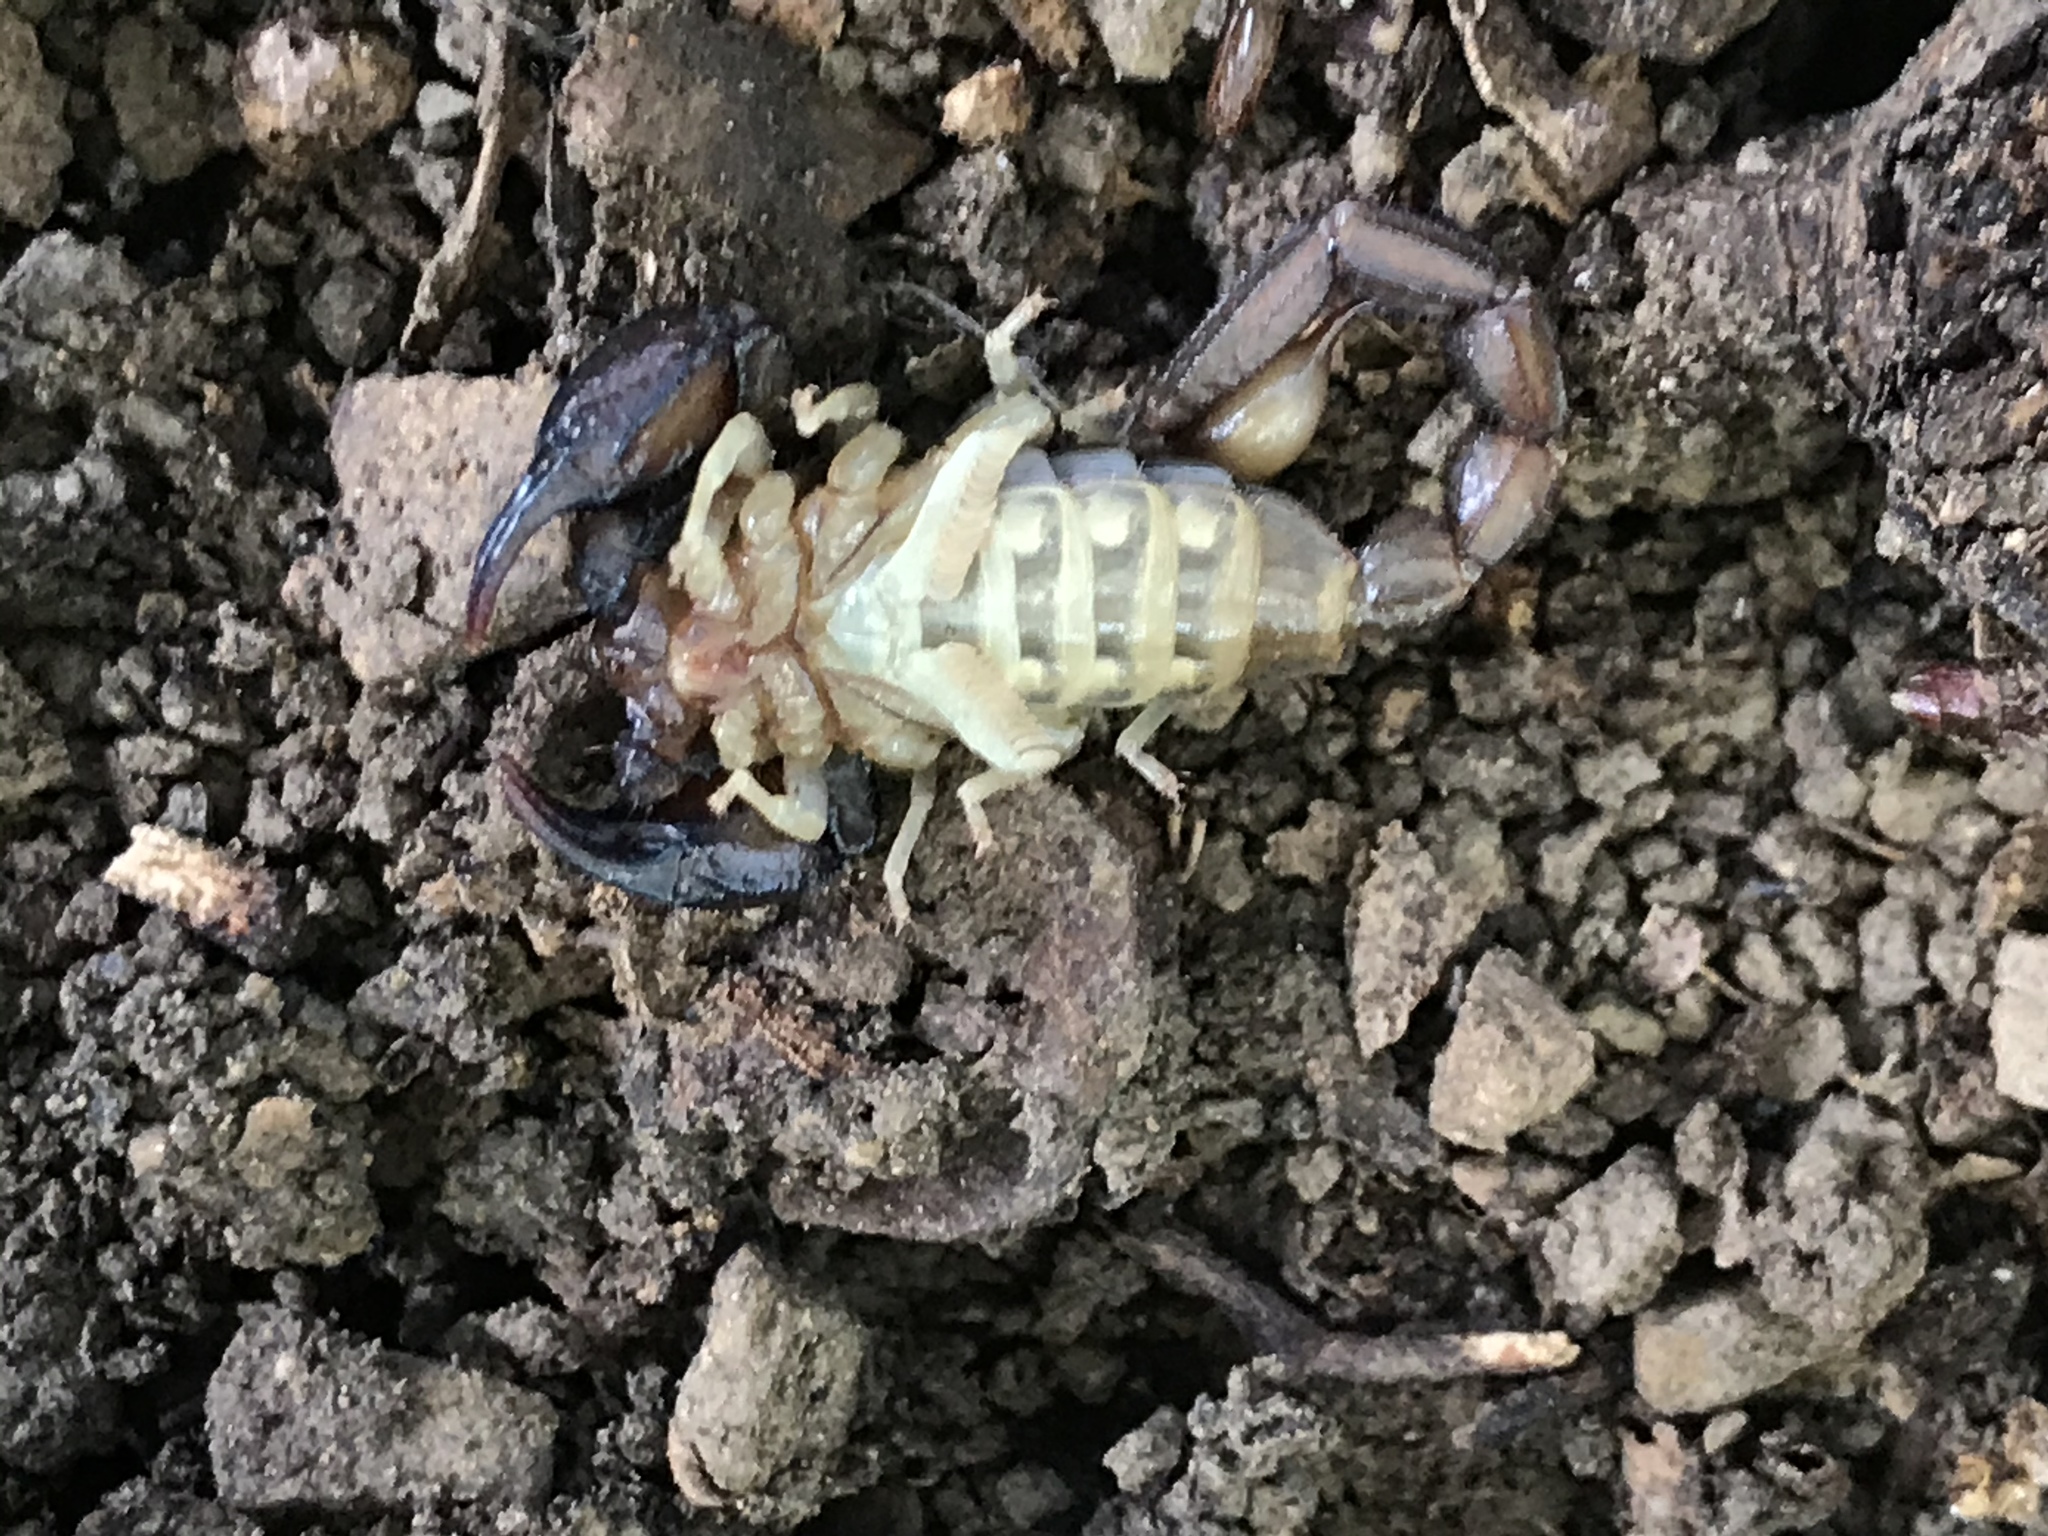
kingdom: Animalia
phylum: Arthropoda
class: Arachnida
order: Scorpiones
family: Chactidae
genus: Uroctonus
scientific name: Uroctonus mordax
